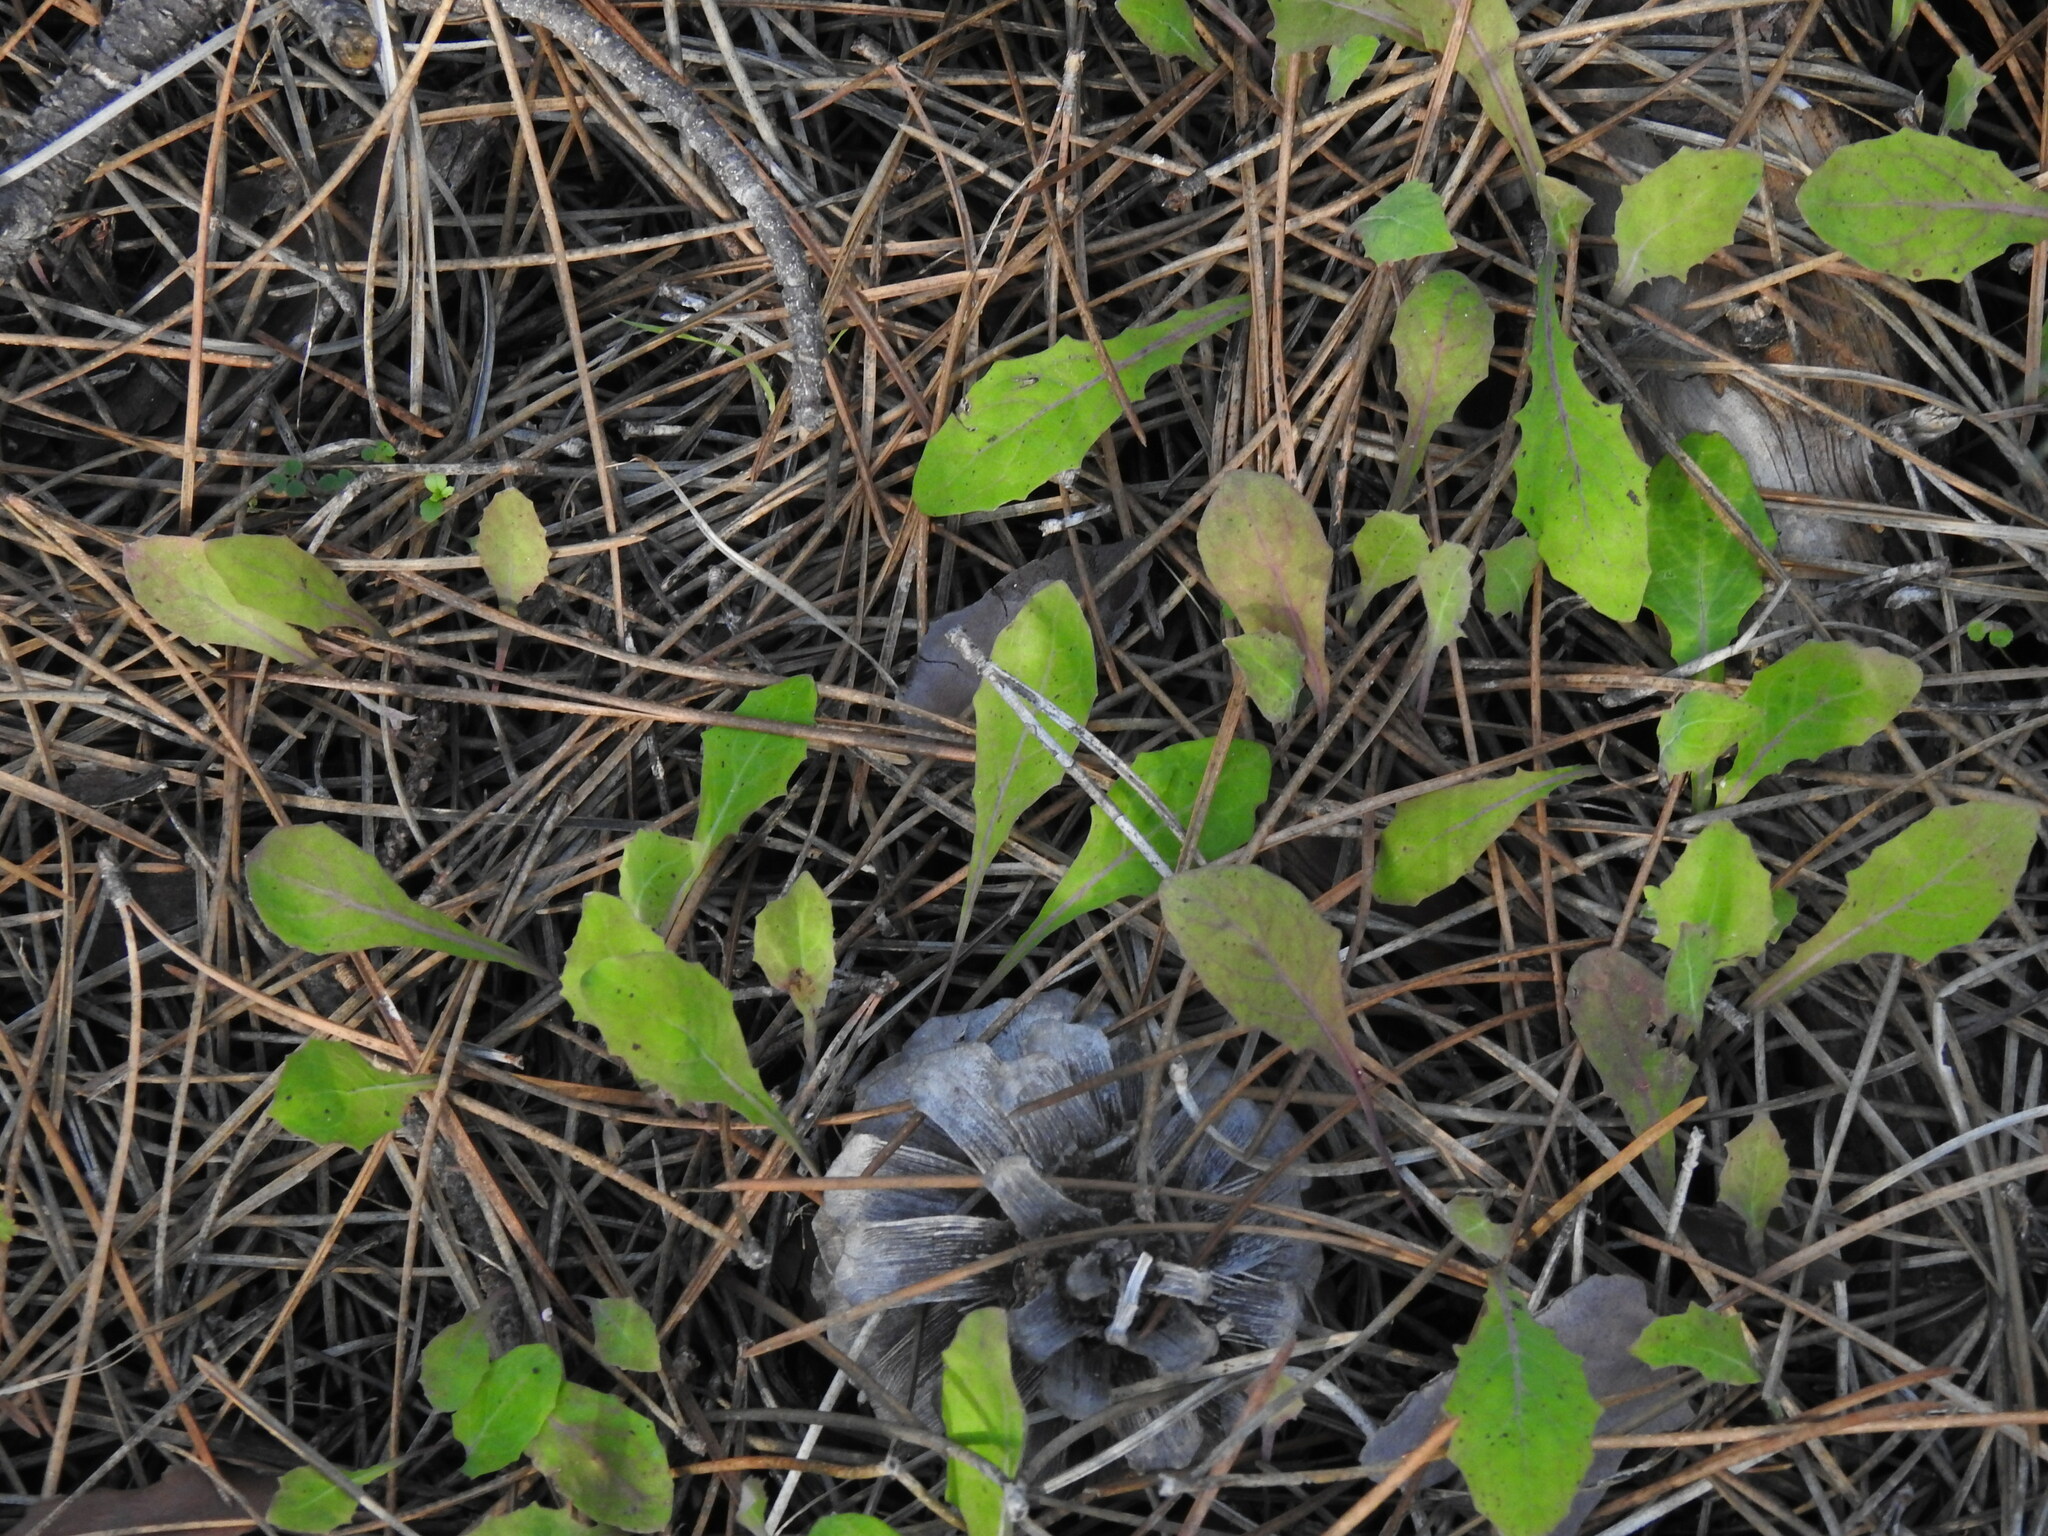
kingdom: Plantae
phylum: Tracheophyta
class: Magnoliopsida
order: Asterales
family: Asteraceae
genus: Aetheorhiza
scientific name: Aetheorhiza bulbosa
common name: Tuberous hawk's-beard
